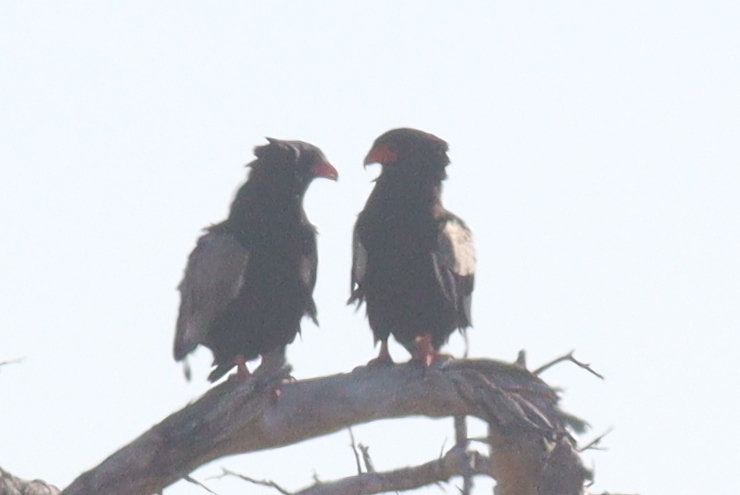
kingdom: Animalia
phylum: Chordata
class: Aves
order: Accipitriformes
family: Accipitridae
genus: Terathopius
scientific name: Terathopius ecaudatus
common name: Bateleur
